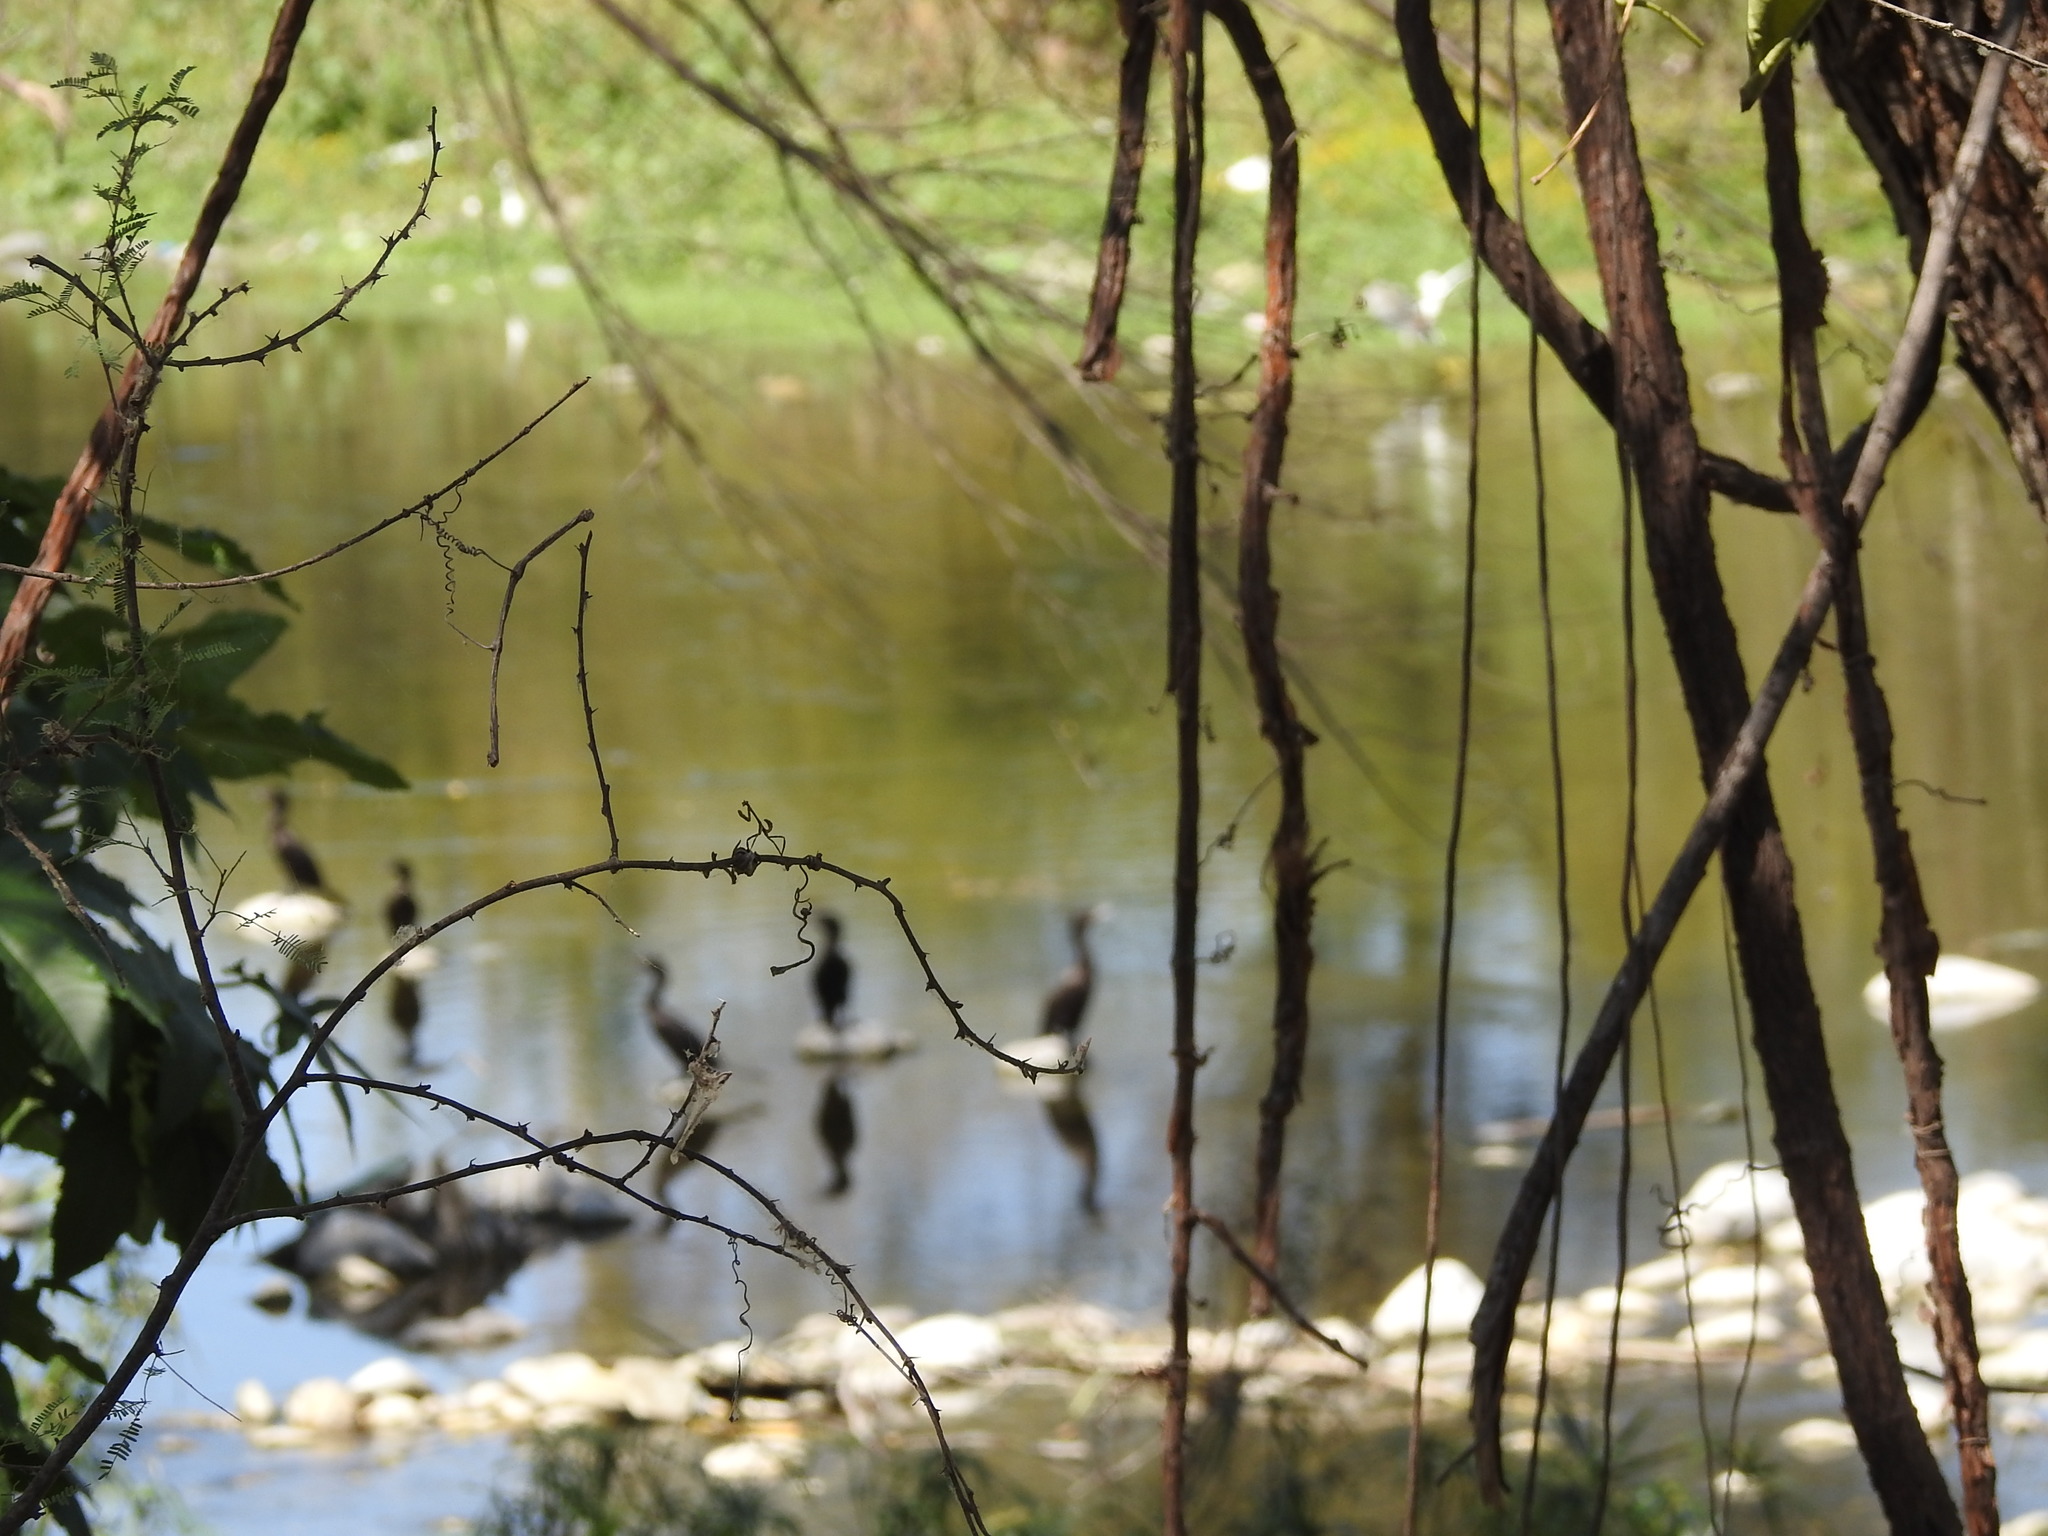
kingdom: Animalia
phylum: Chordata
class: Aves
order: Suliformes
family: Phalacrocoracidae
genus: Phalacrocorax
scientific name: Phalacrocorax brasilianus
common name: Neotropic cormorant
